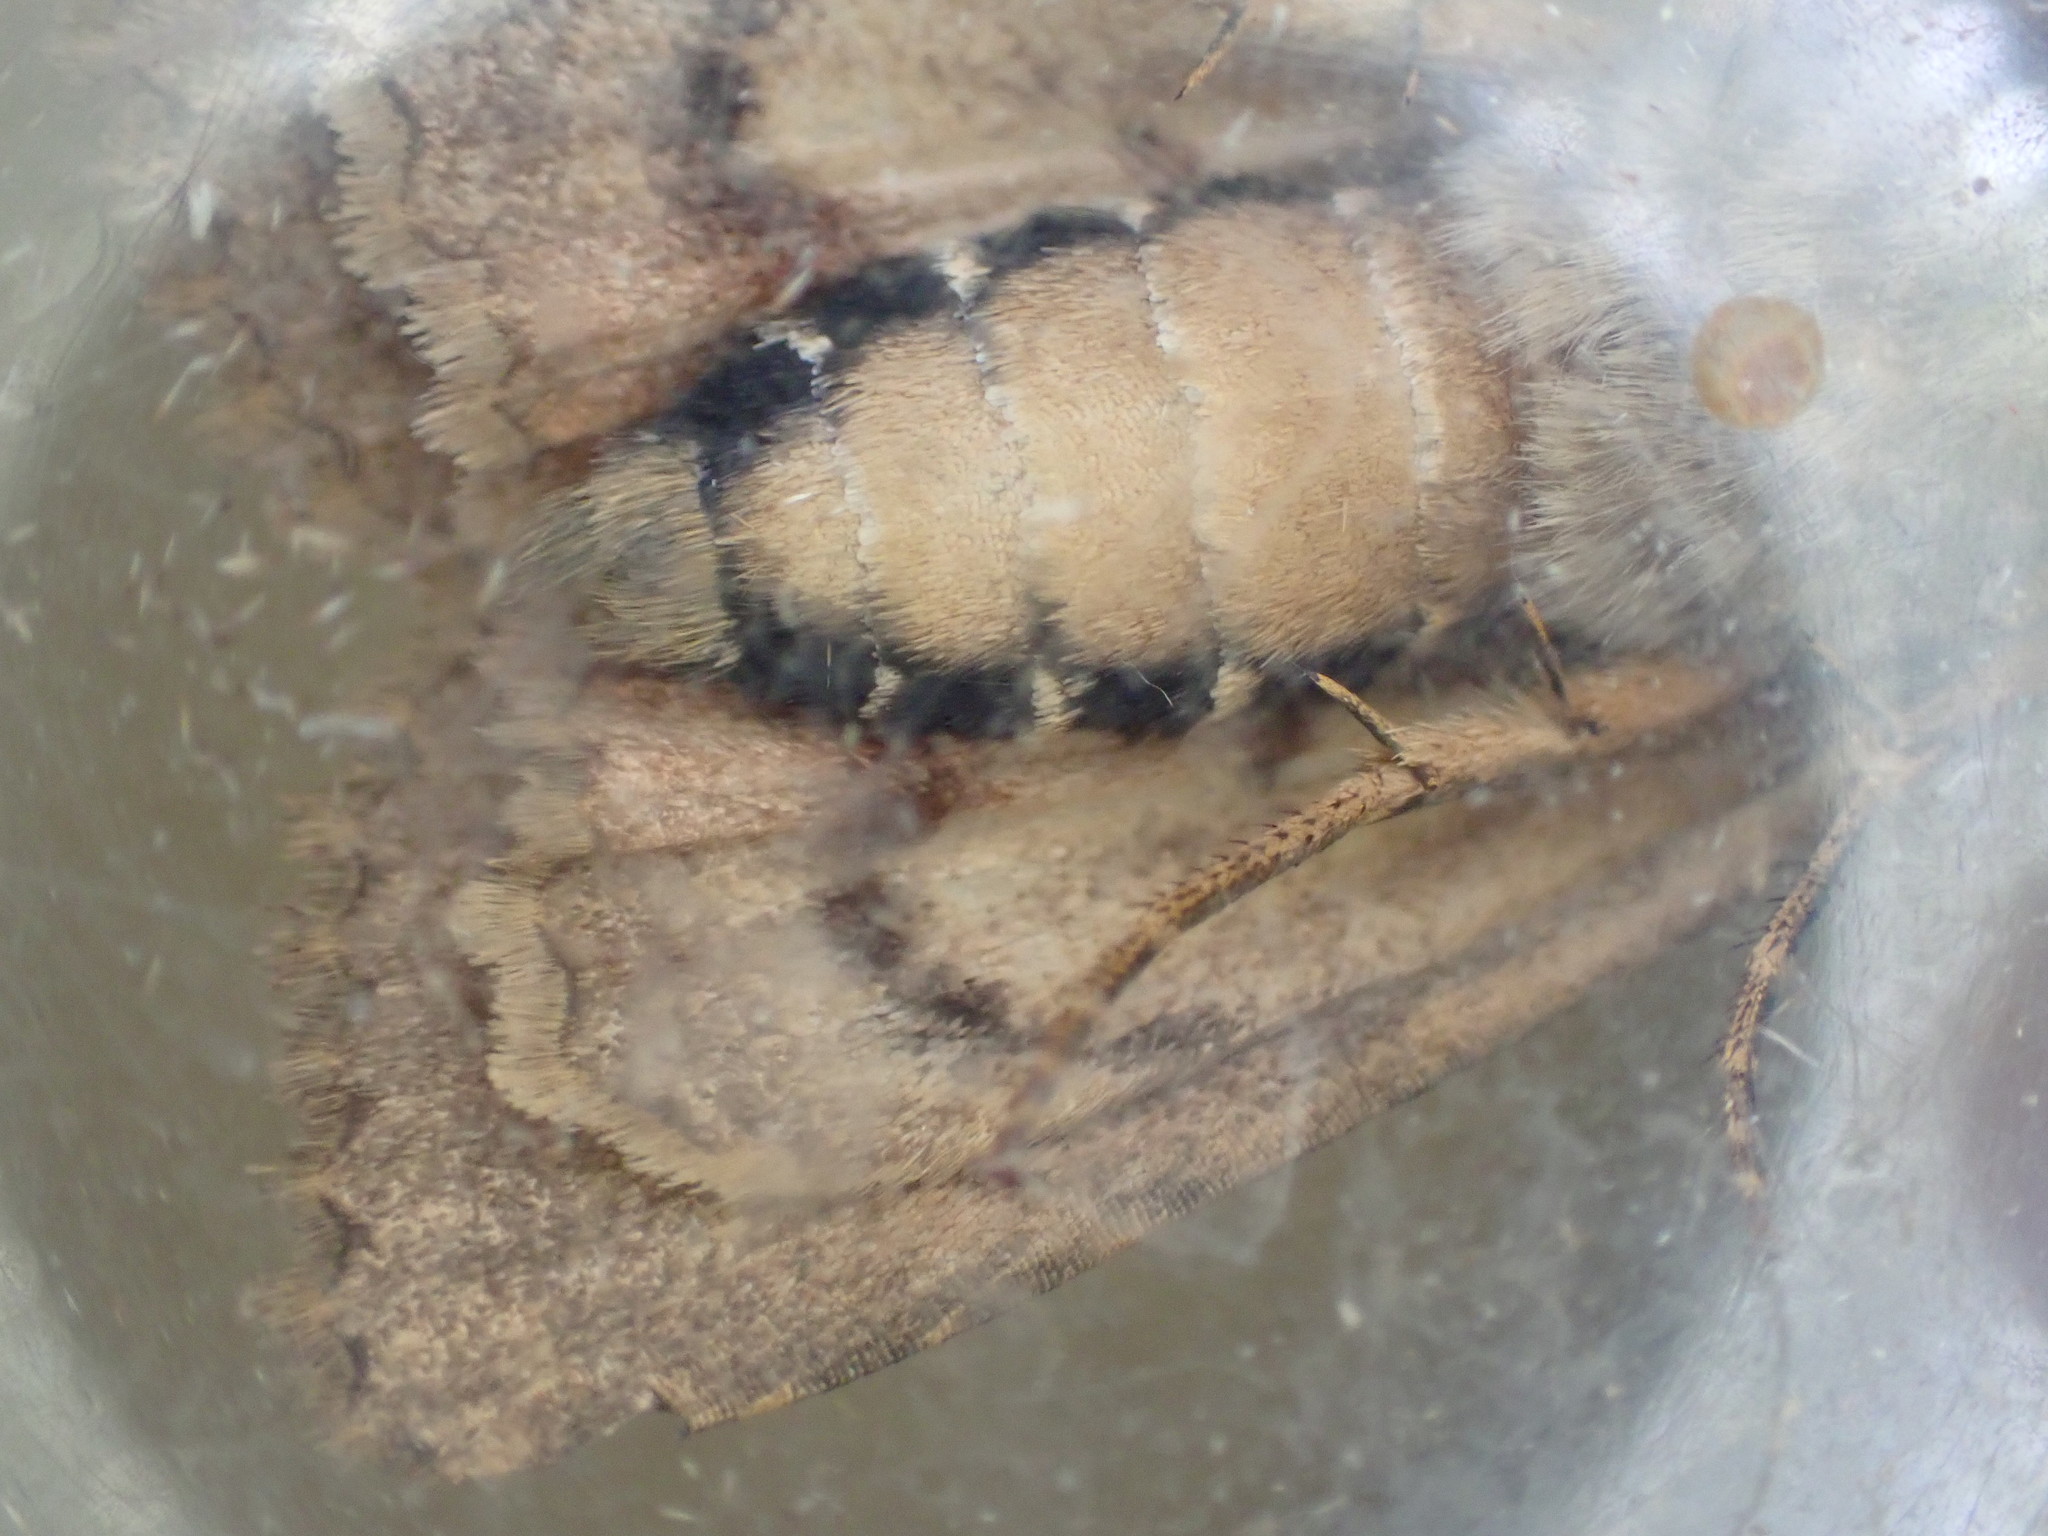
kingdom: Animalia
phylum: Arthropoda
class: Insecta
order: Lepidoptera
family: Noctuidae
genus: Amphipyra
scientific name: Amphipyra pyramidea
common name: Copper underwing
